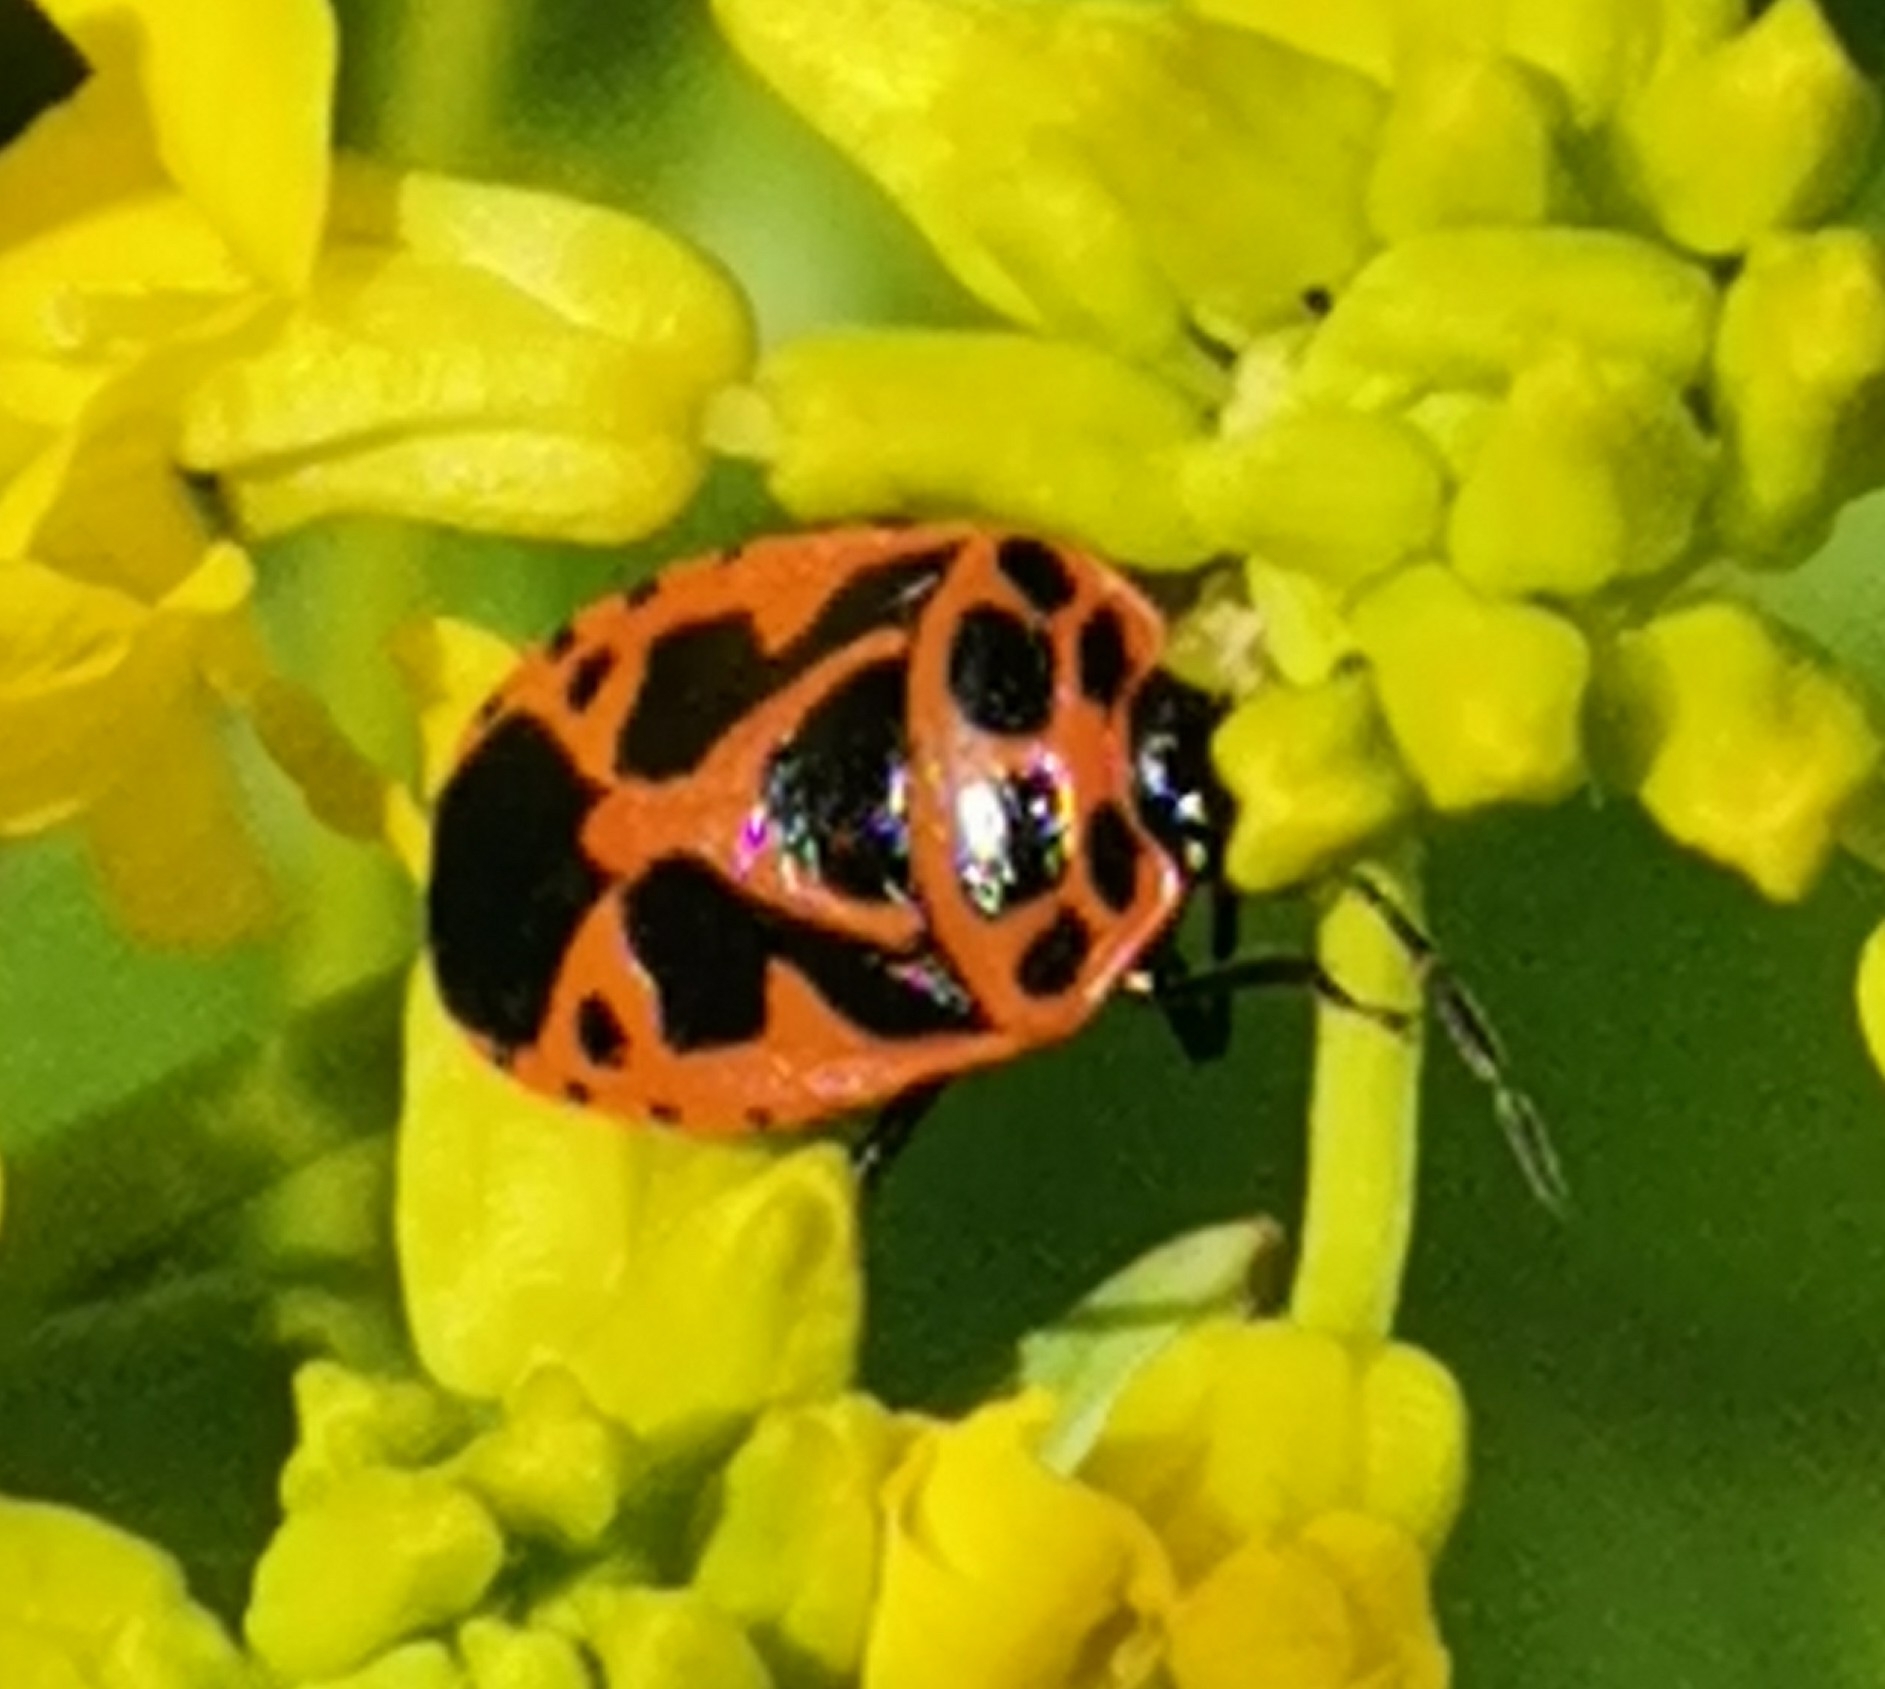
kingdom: Animalia
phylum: Arthropoda
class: Insecta
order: Hemiptera
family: Pentatomidae
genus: Eurydema
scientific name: Eurydema dominulus
